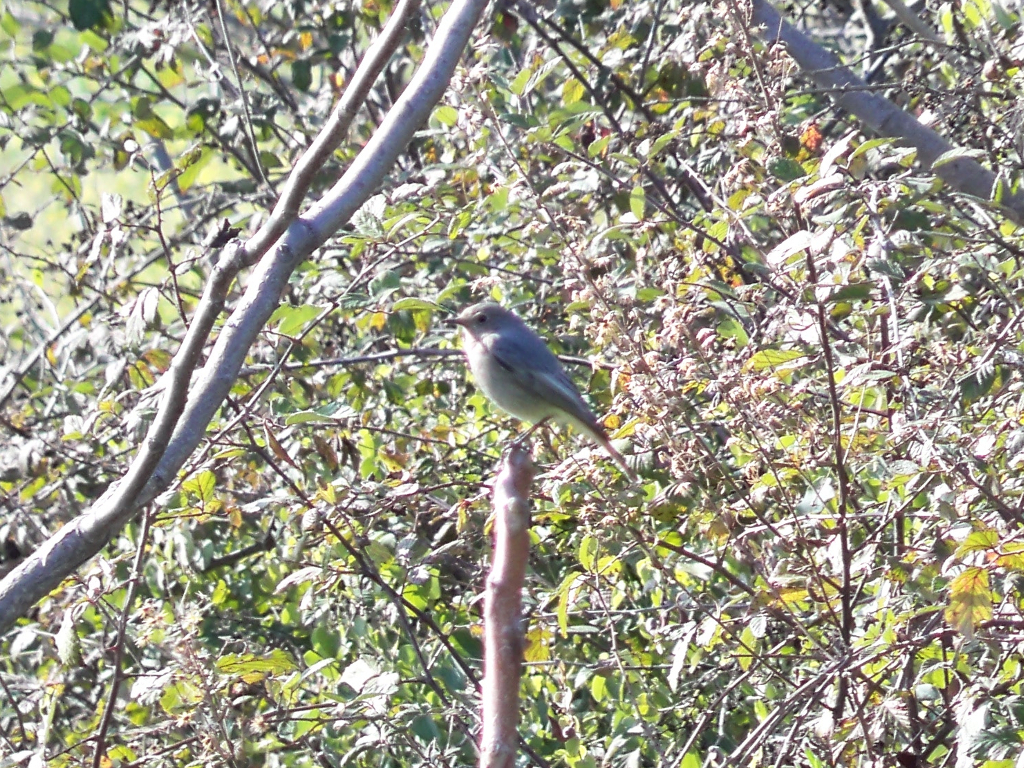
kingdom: Animalia
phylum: Chordata
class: Aves
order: Passeriformes
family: Muscicapidae
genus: Phoenicurus
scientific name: Phoenicurus ochruros
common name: Black redstart
